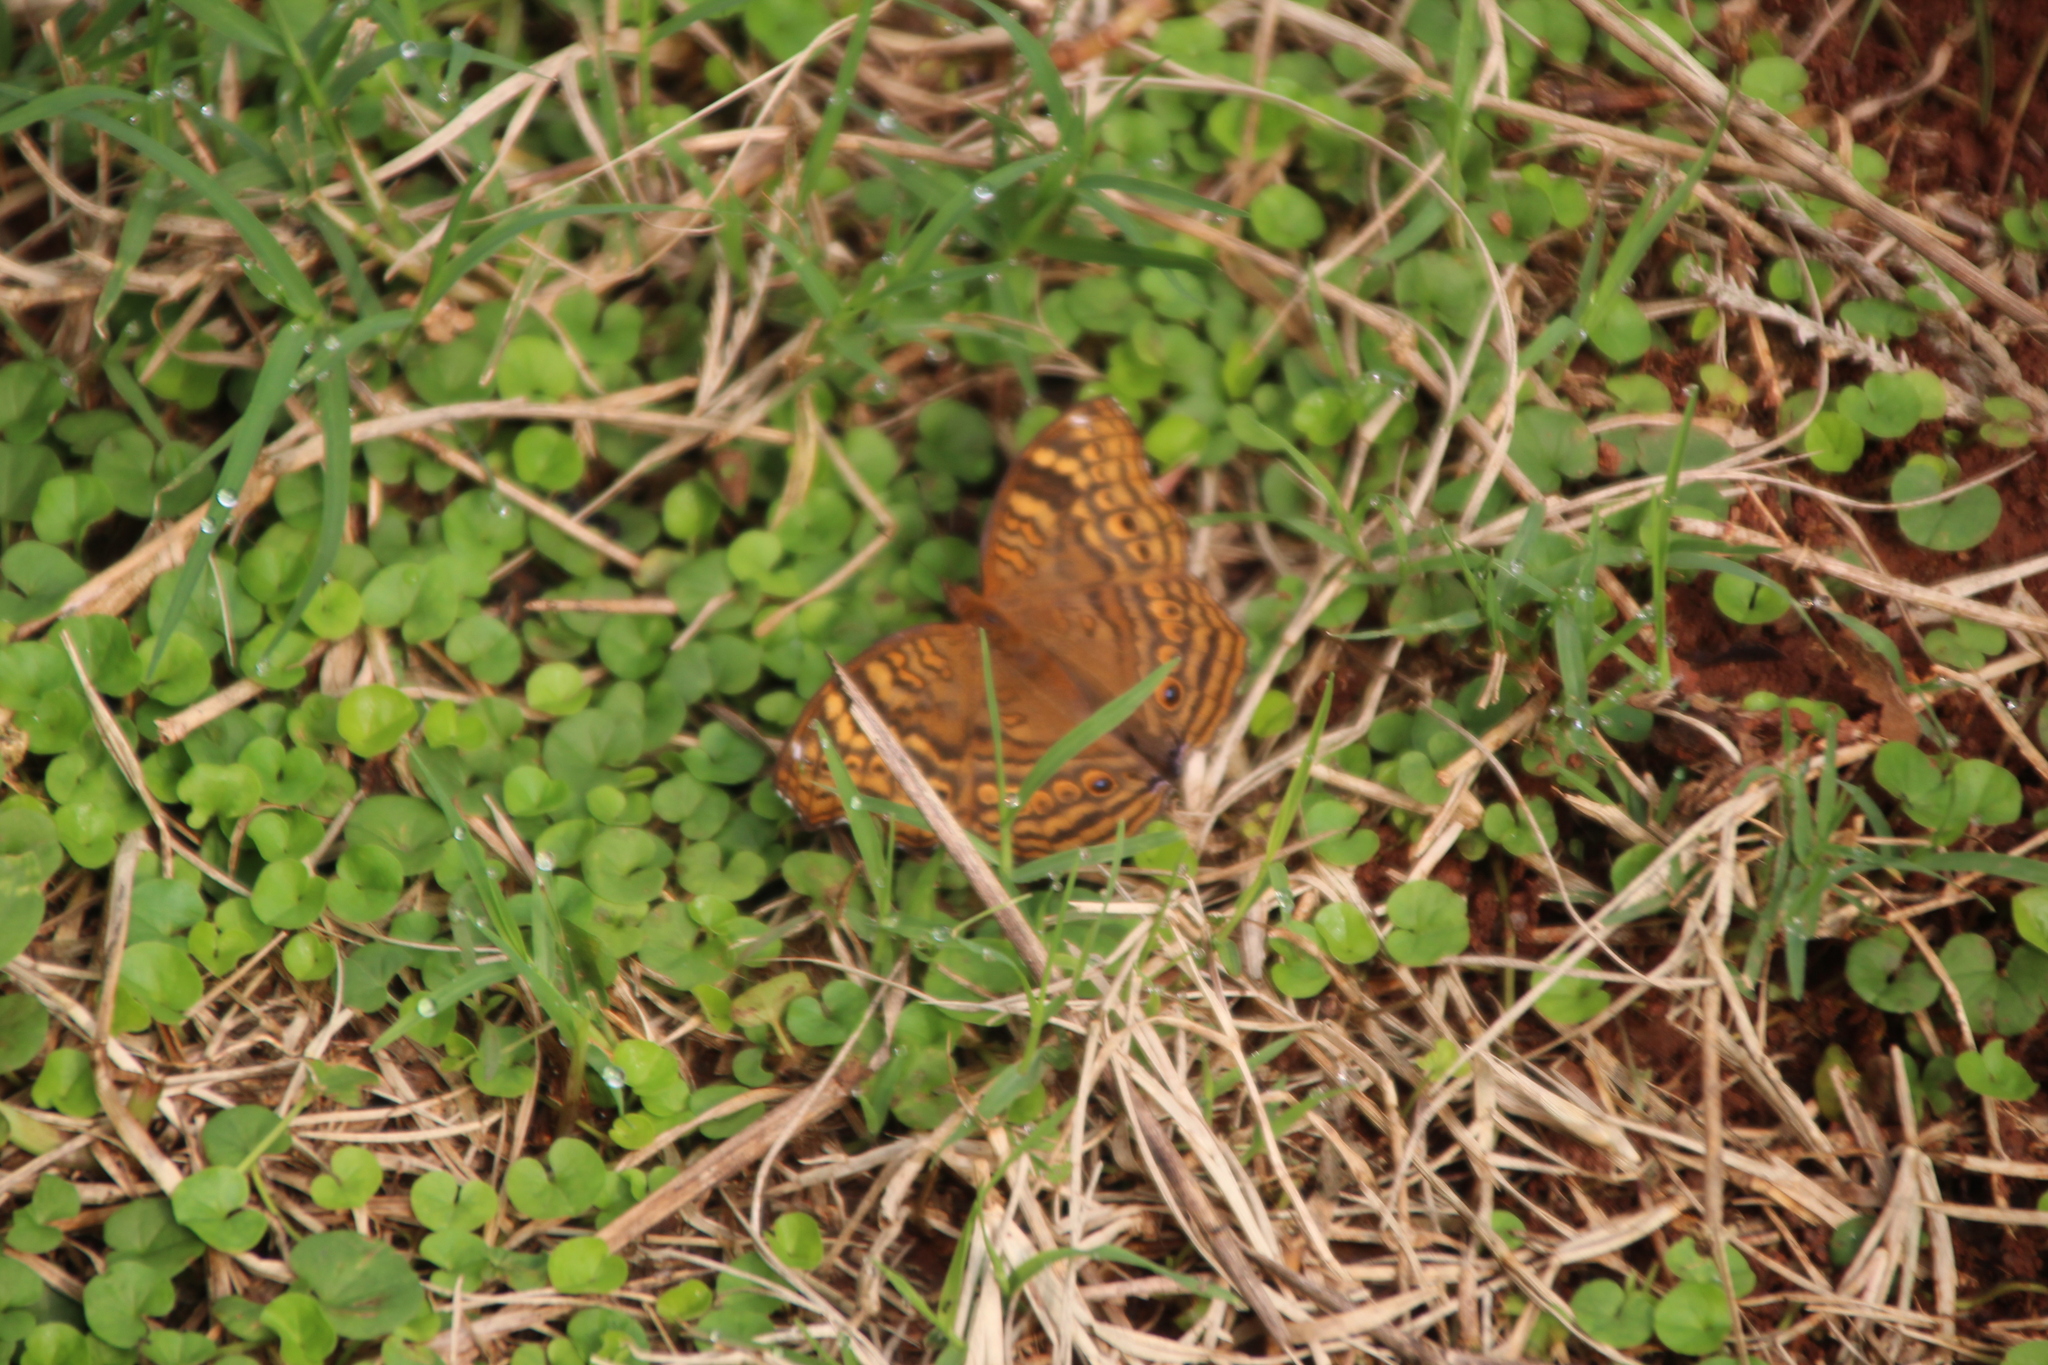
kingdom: Animalia
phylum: Arthropoda
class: Insecta
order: Lepidoptera
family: Nymphalidae
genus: Junonia
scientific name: Junonia chorimene
